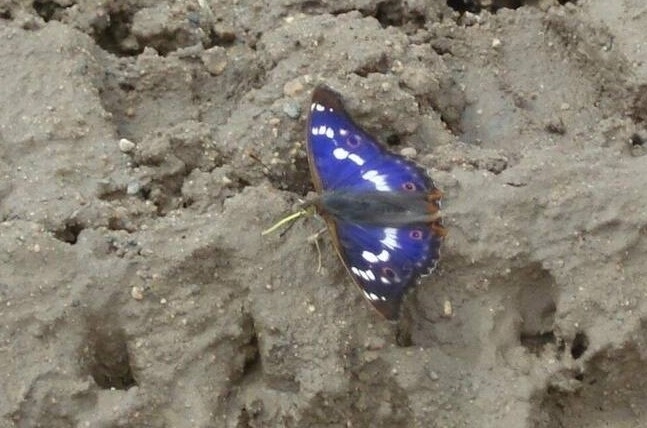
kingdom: Animalia
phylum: Arthropoda
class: Insecta
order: Lepidoptera
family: Nymphalidae
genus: Apatura
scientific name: Apatura ilia
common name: Lesser purple emperor
